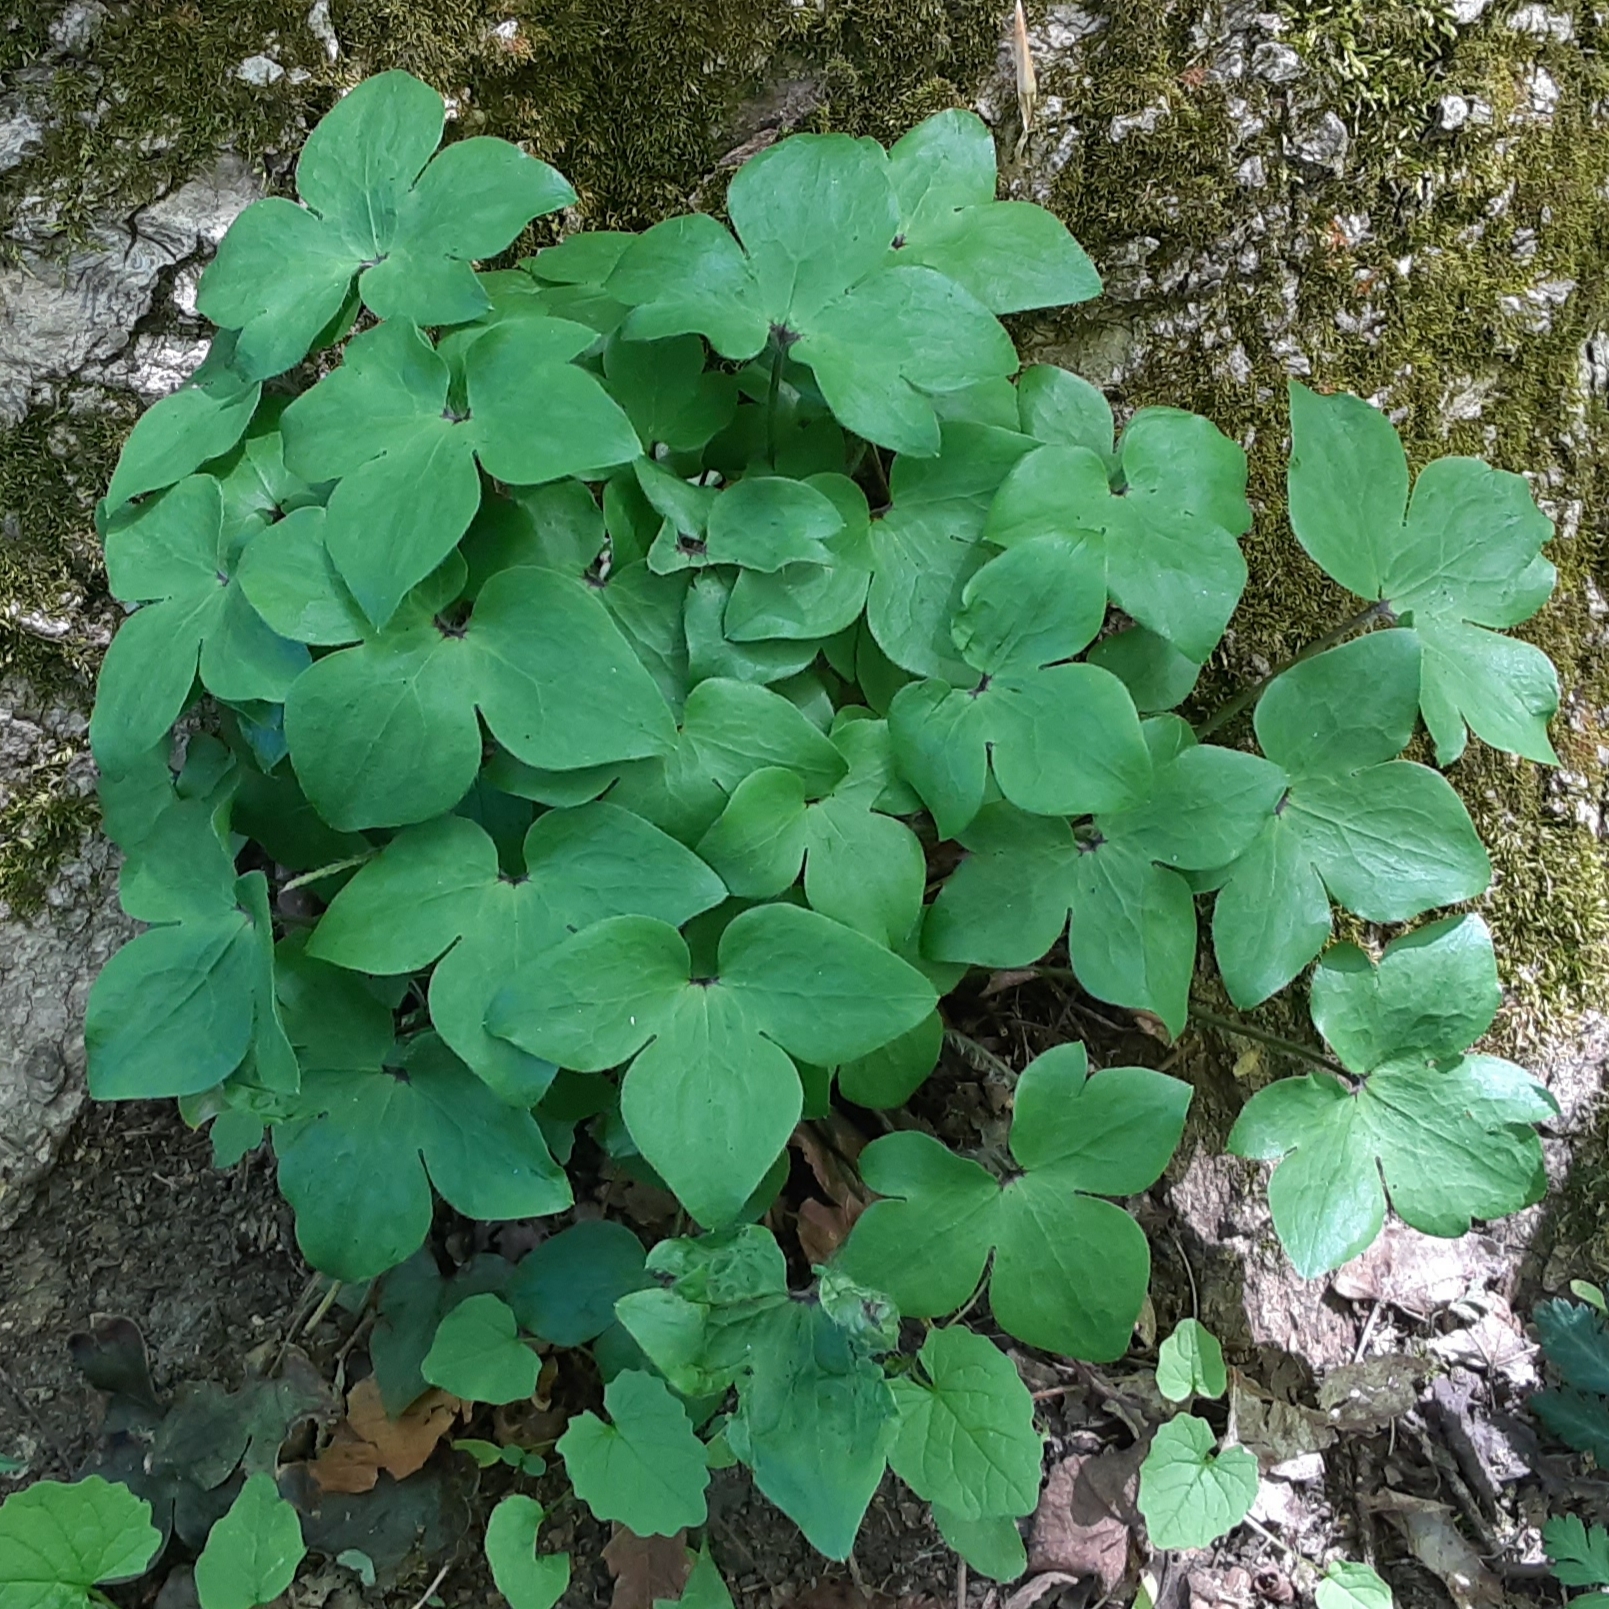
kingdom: Plantae
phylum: Tracheophyta
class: Magnoliopsida
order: Ranunculales
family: Ranunculaceae
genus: Hepatica
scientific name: Hepatica acutiloba
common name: Sharp-lobed hepatica
